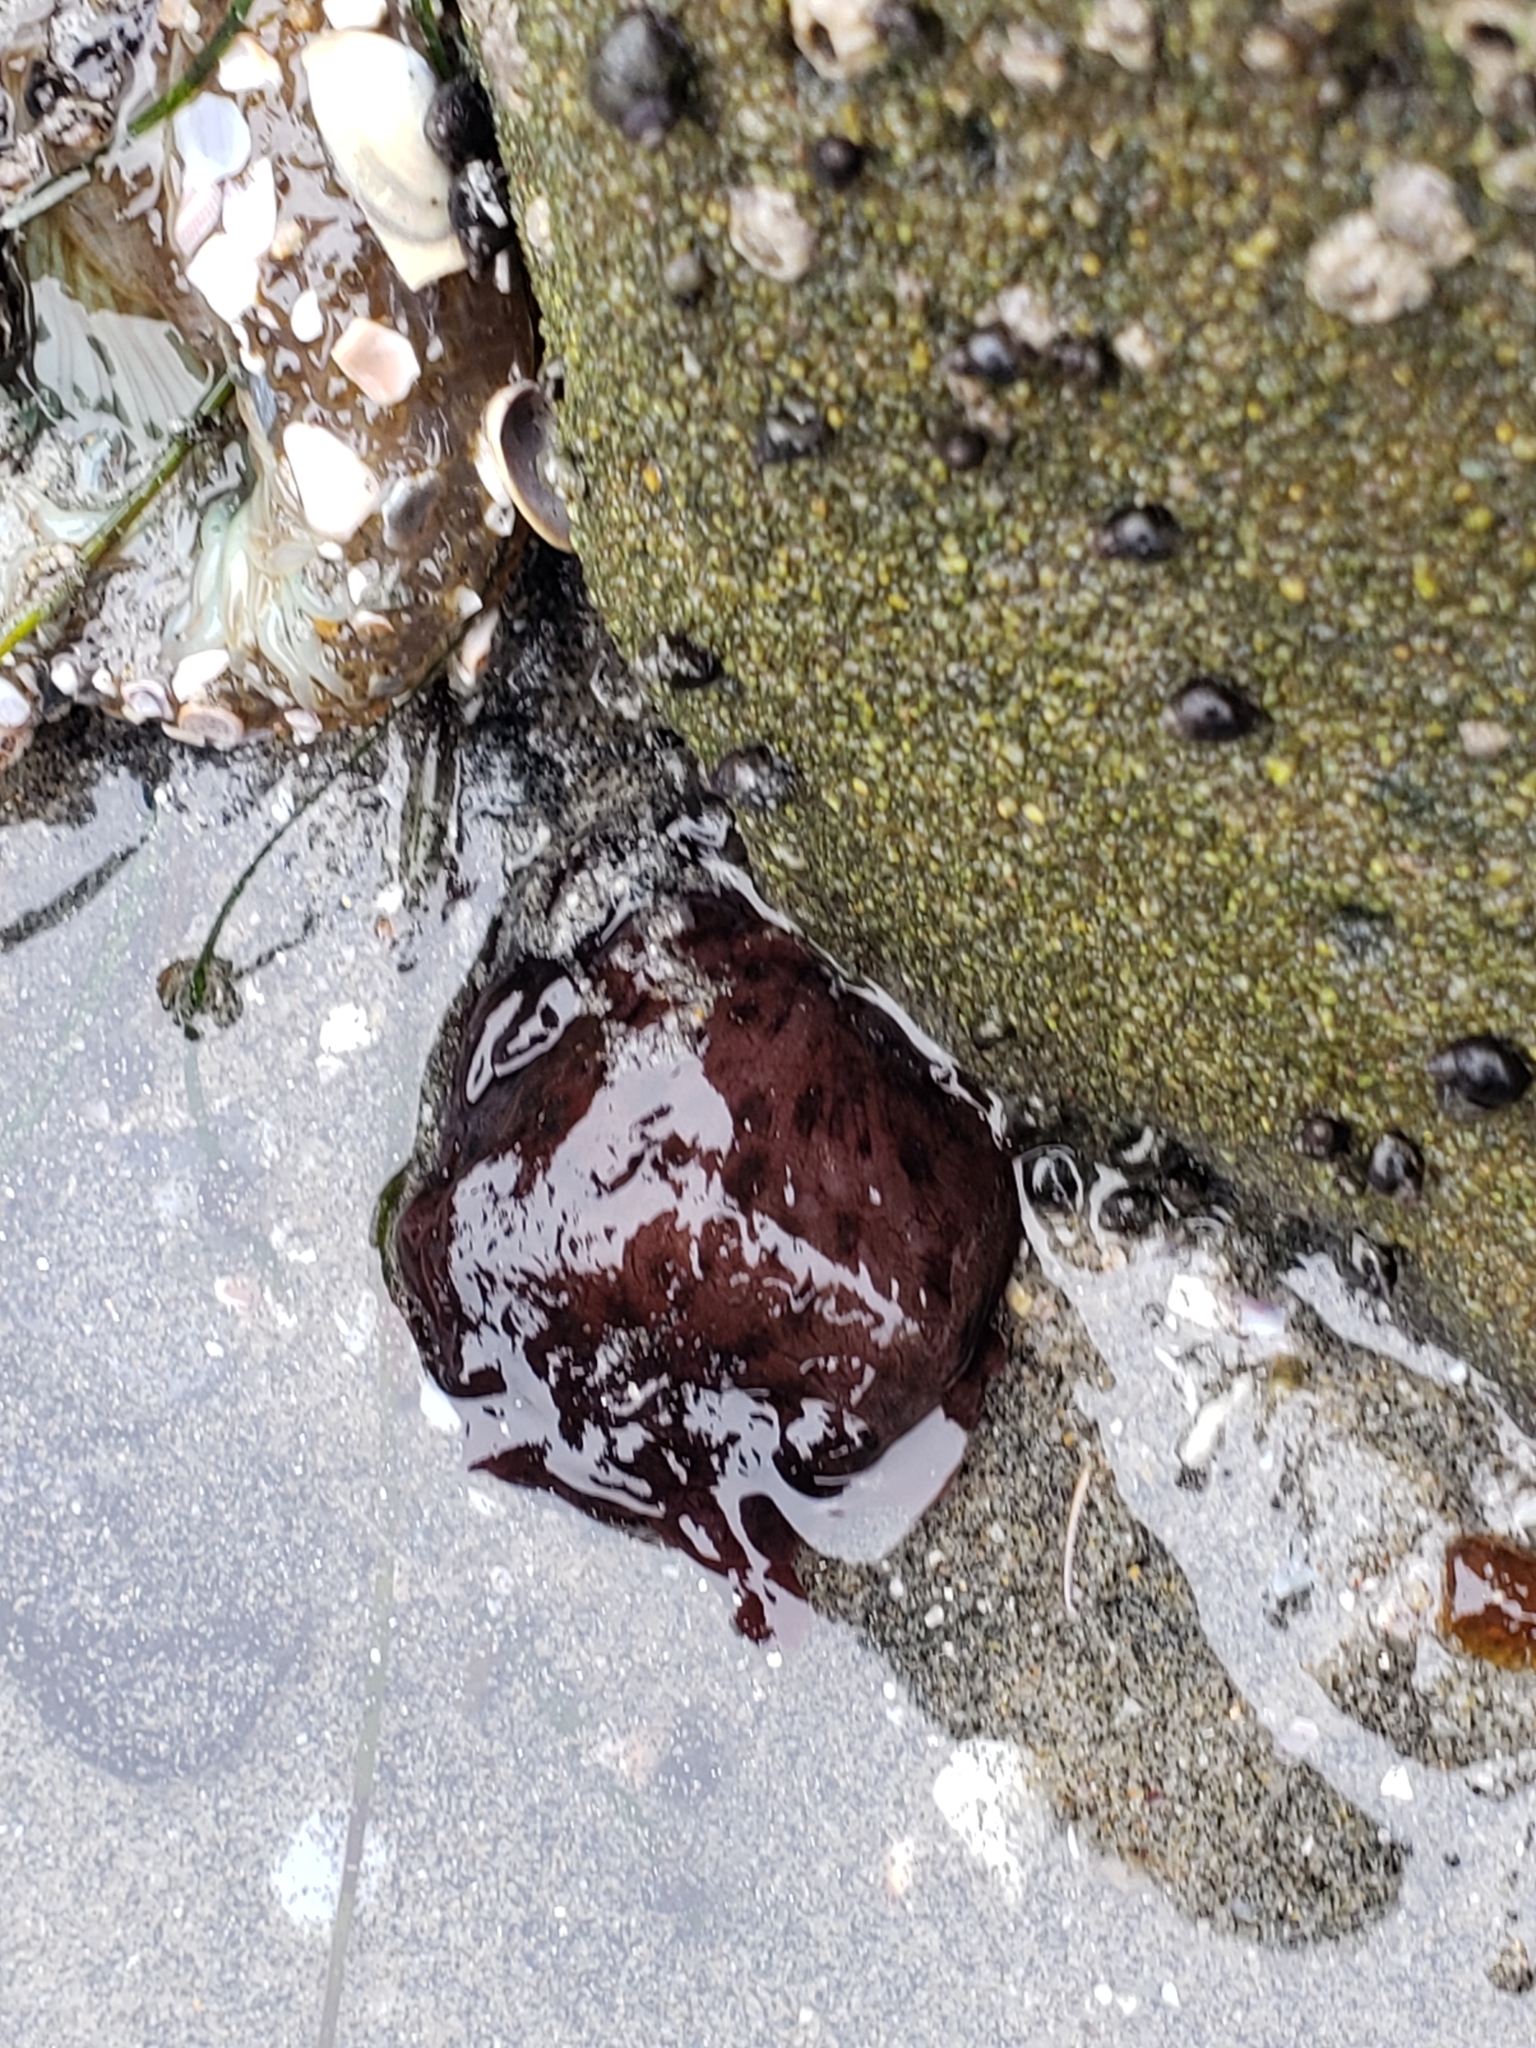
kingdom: Animalia
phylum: Mollusca
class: Gastropoda
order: Aplysiida
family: Aplysiidae
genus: Aplysia
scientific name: Aplysia californica
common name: California seahare
